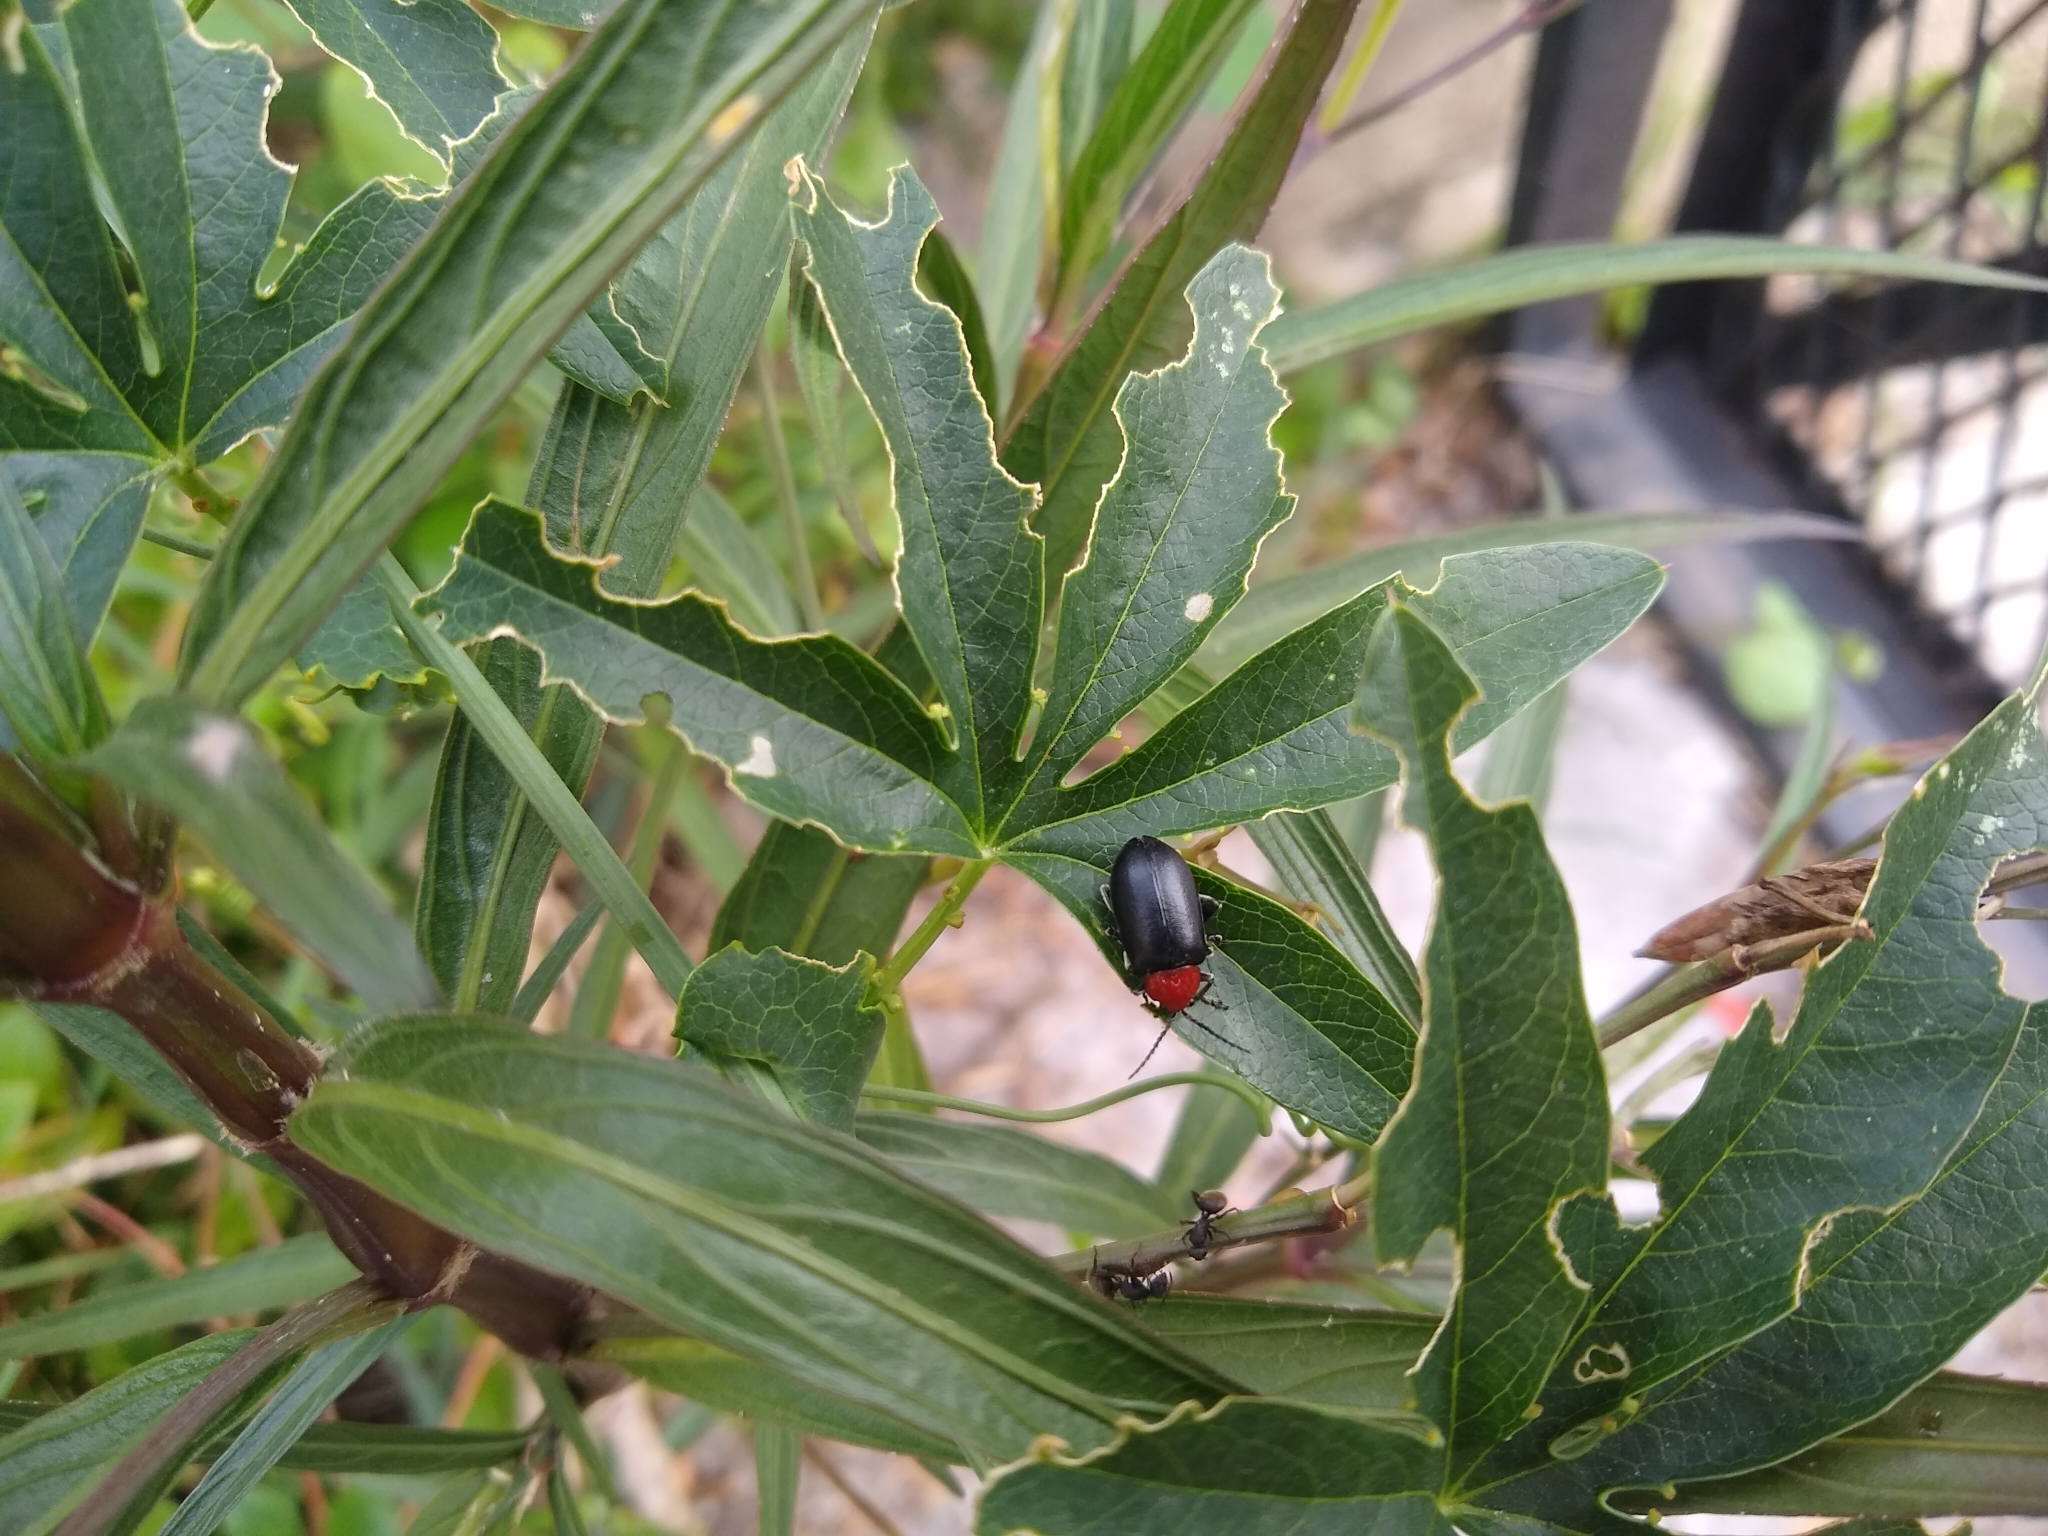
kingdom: Animalia
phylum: Arthropoda
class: Insecta
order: Coleoptera
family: Chrysomelidae
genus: Cacoscelis
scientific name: Cacoscelis
